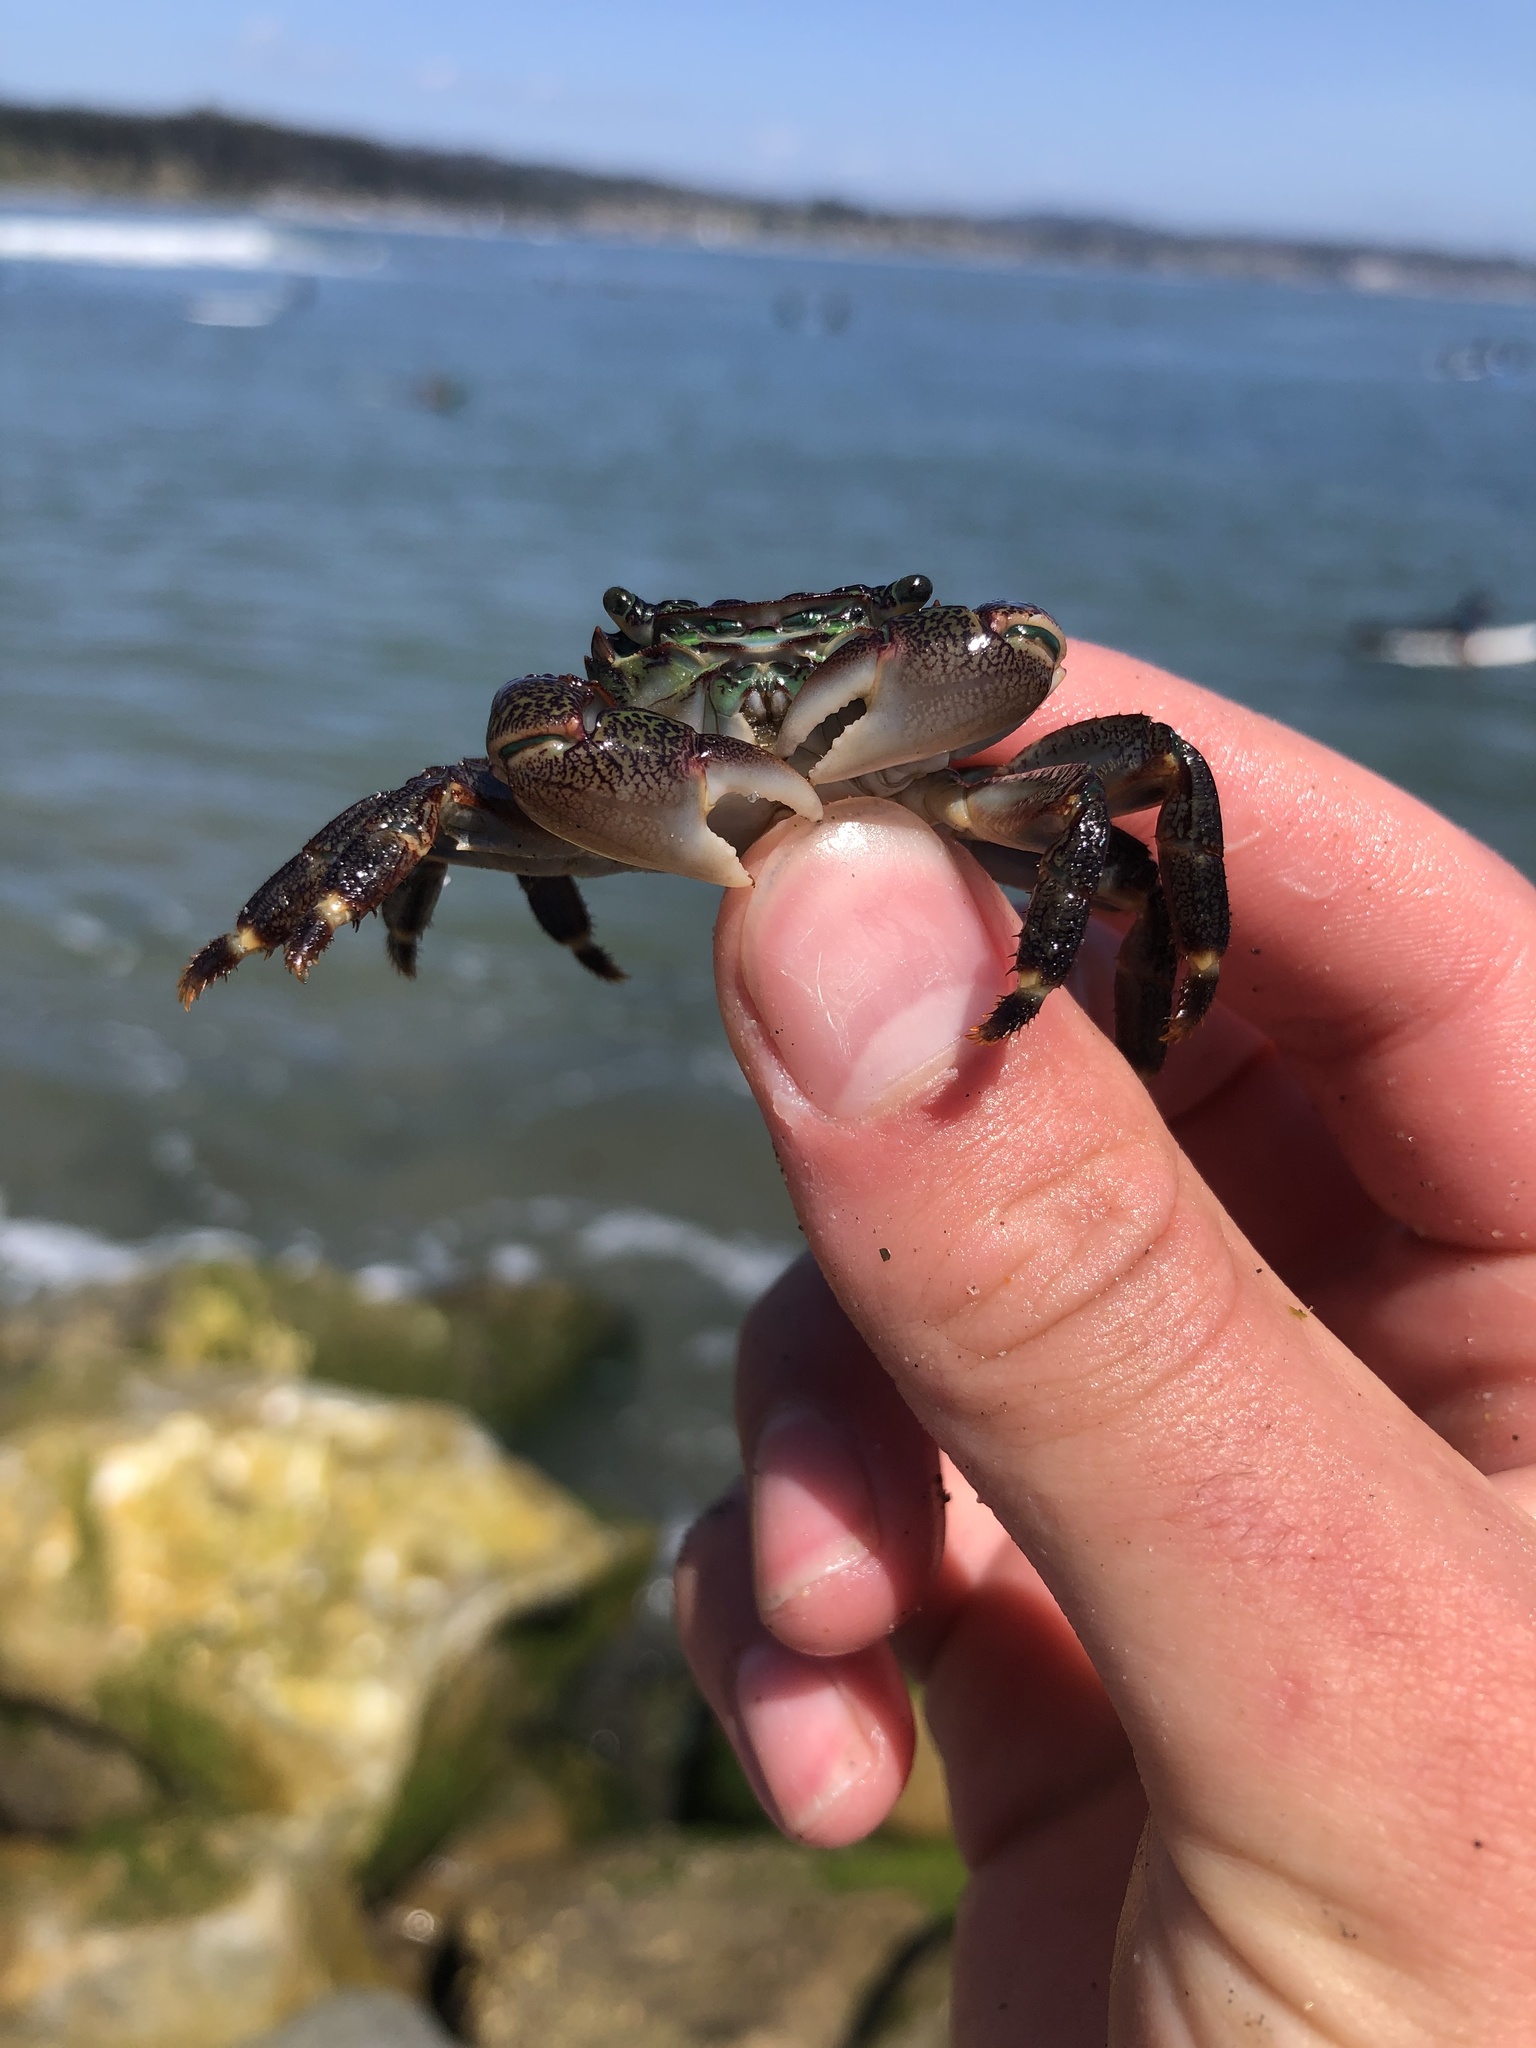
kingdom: Animalia
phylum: Arthropoda
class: Malacostraca
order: Decapoda
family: Grapsidae
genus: Pachygrapsus
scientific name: Pachygrapsus crassipes
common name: Striped shore crab
